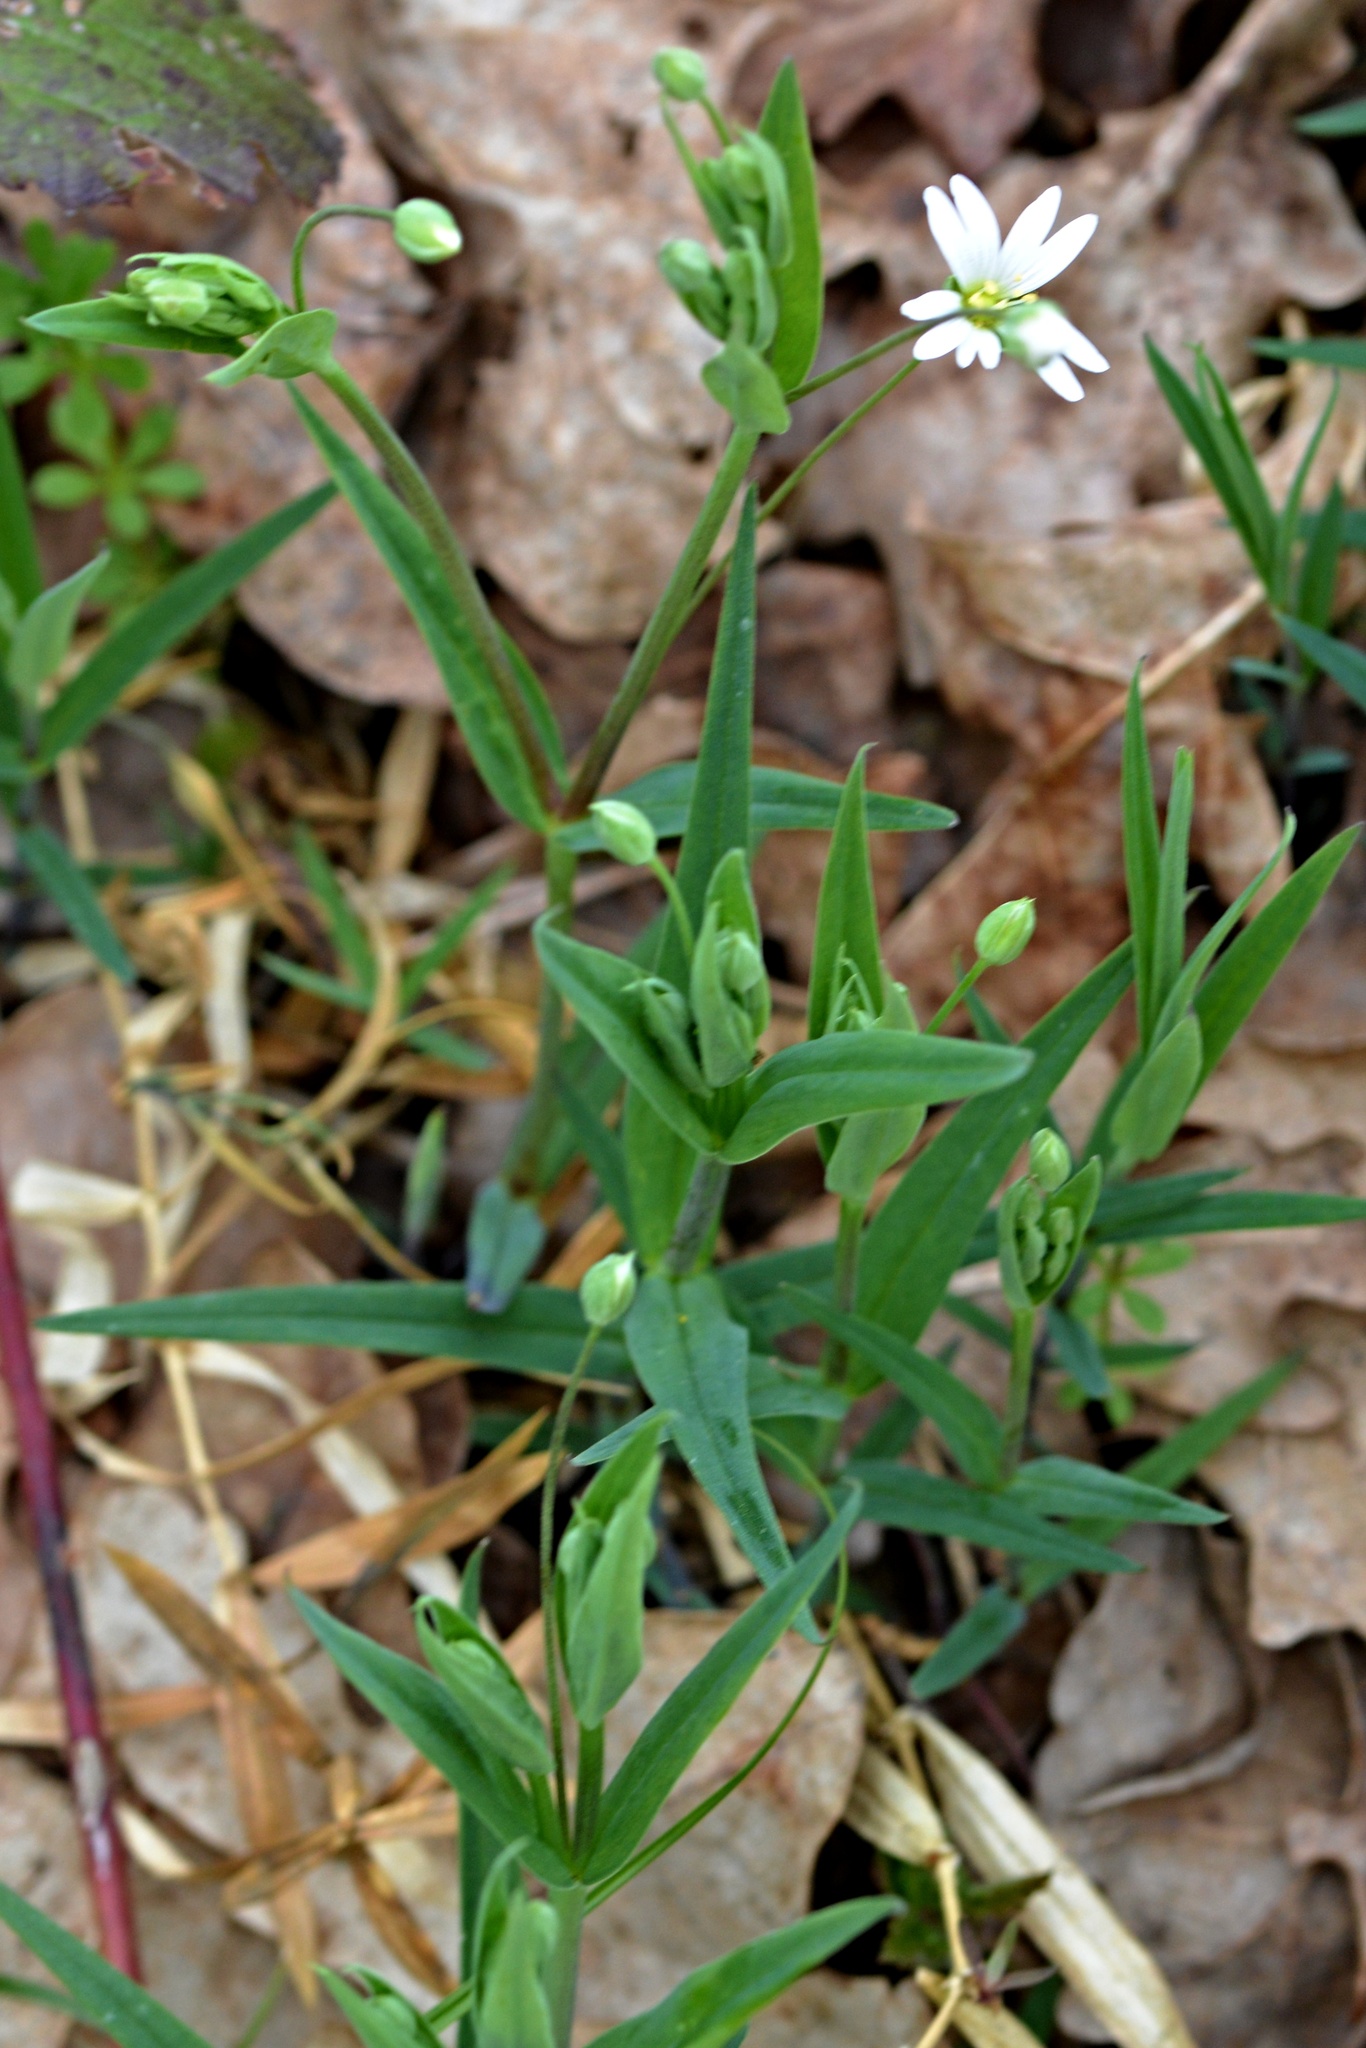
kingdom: Plantae
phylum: Tracheophyta
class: Magnoliopsida
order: Caryophyllales
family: Caryophyllaceae
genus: Rabelera
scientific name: Rabelera holostea
